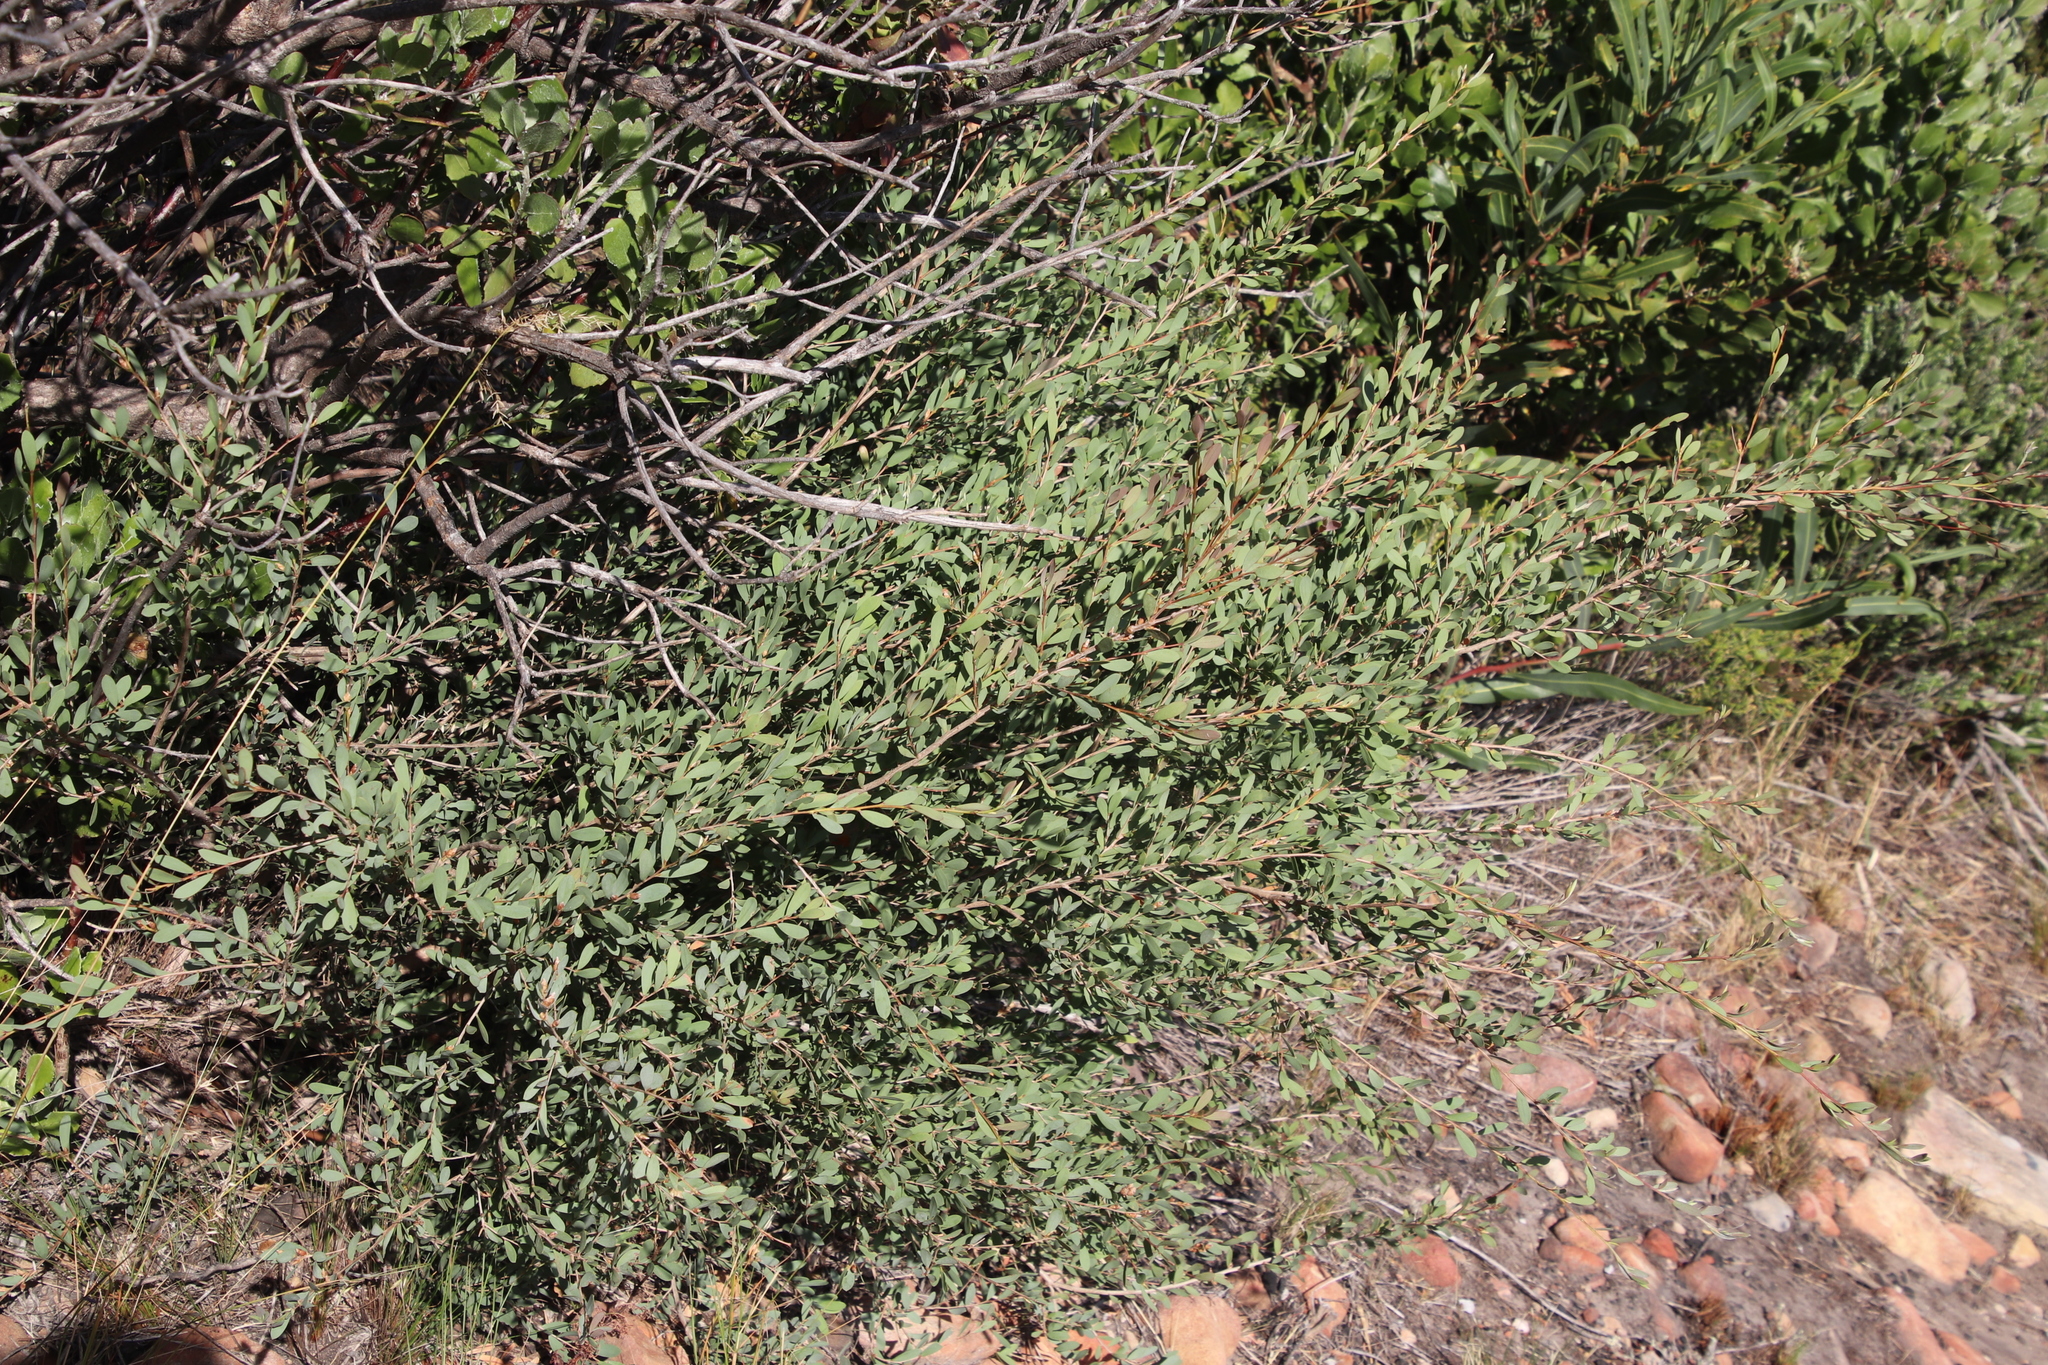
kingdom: Plantae
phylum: Tracheophyta
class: Magnoliopsida
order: Myrtales
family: Myrtaceae
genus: Leptospermum
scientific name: Leptospermum laevigatum
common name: Australian teatree
